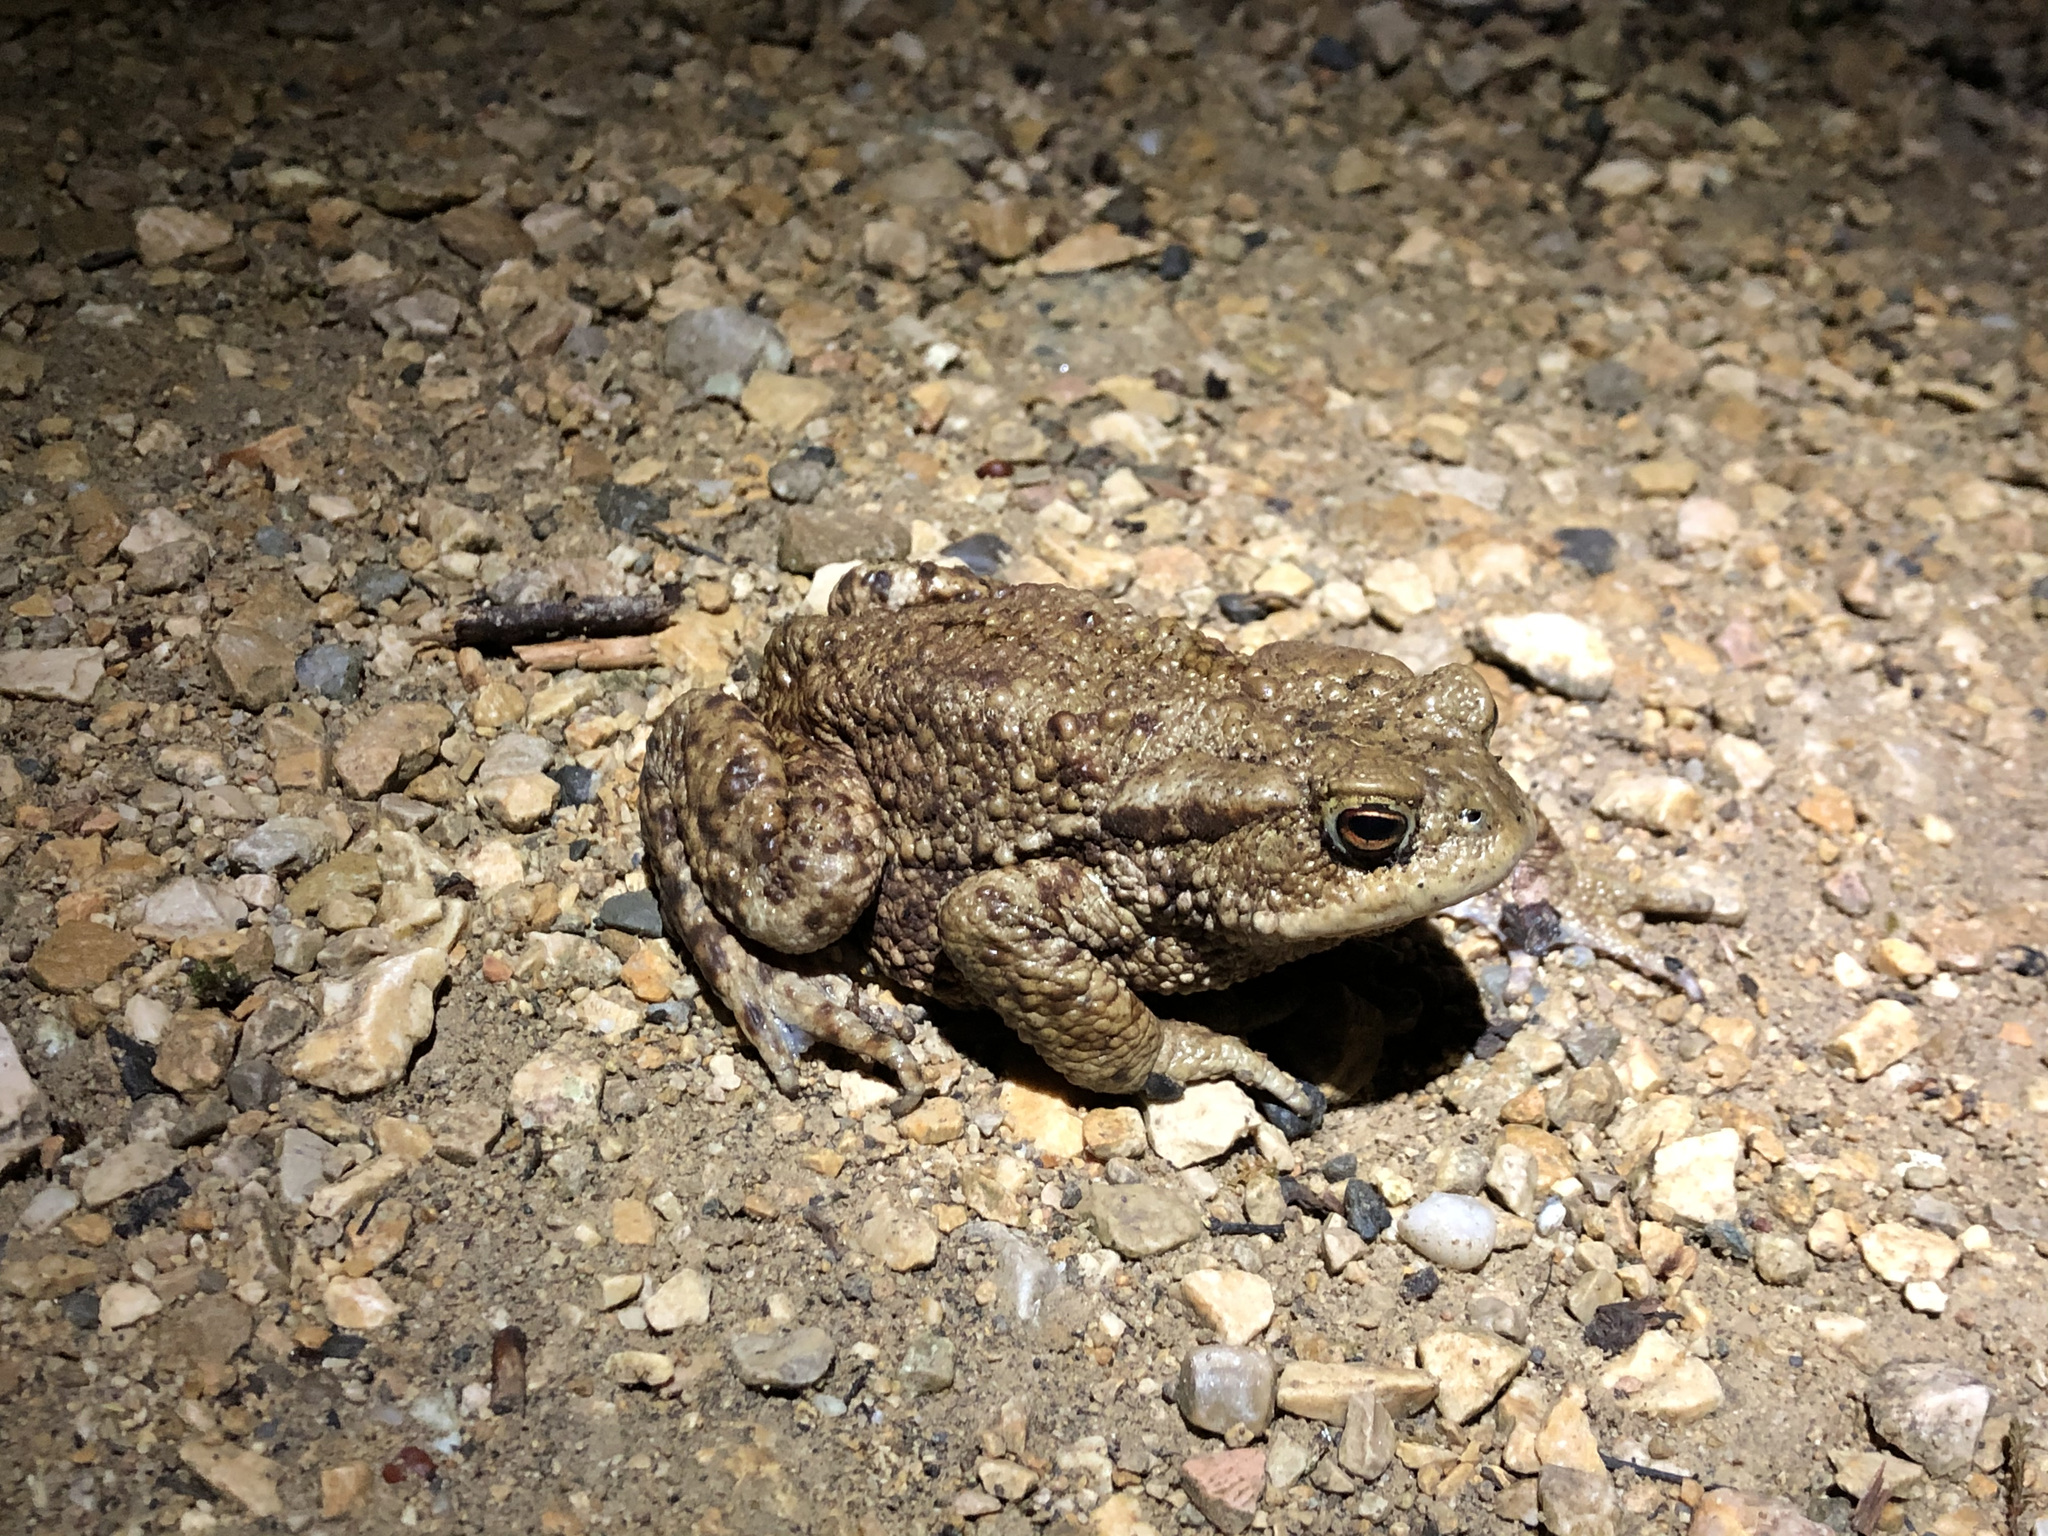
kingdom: Animalia
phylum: Chordata
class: Amphibia
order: Anura
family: Bufonidae
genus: Bufo
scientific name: Bufo bufo
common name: Common toad
